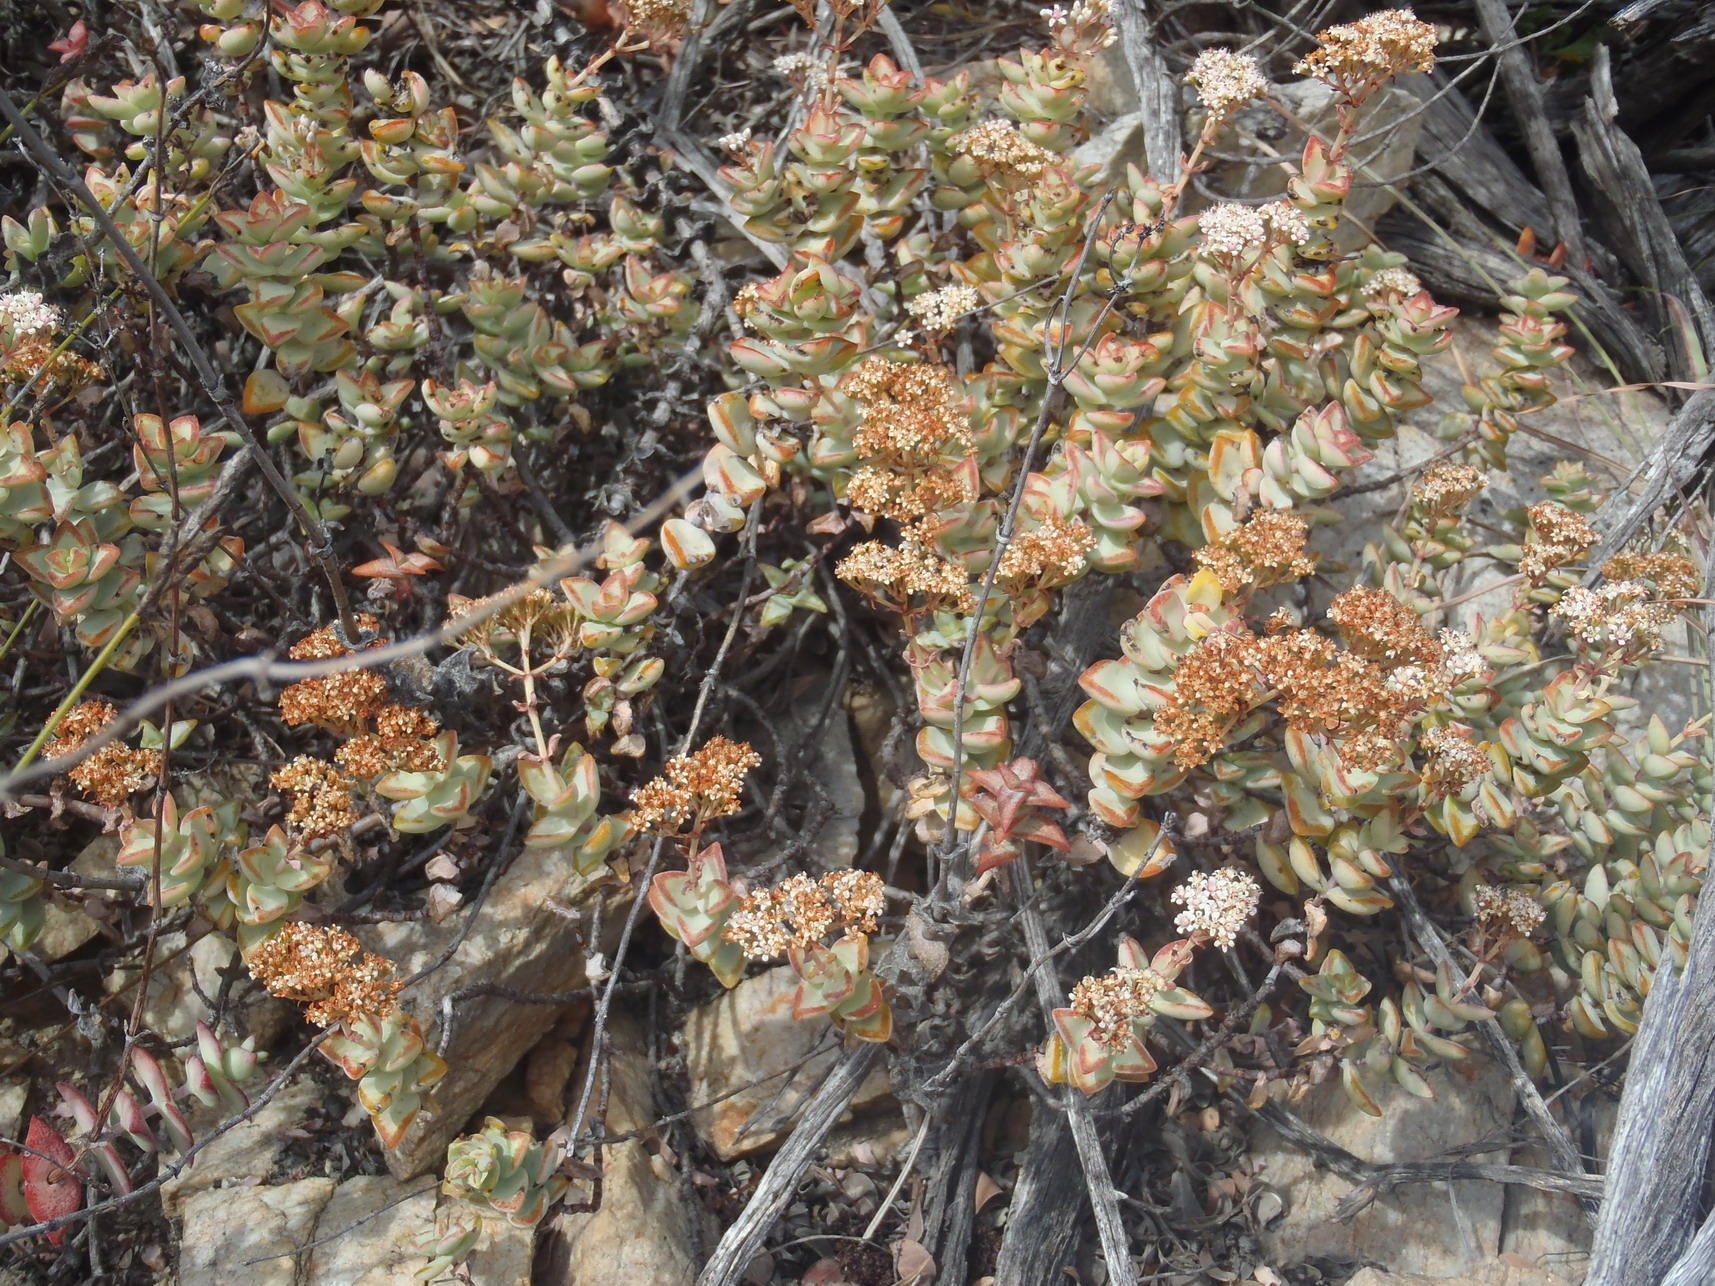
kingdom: Plantae
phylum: Tracheophyta
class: Magnoliopsida
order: Saxifragales
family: Crassulaceae
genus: Crassula
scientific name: Crassula rupestris
